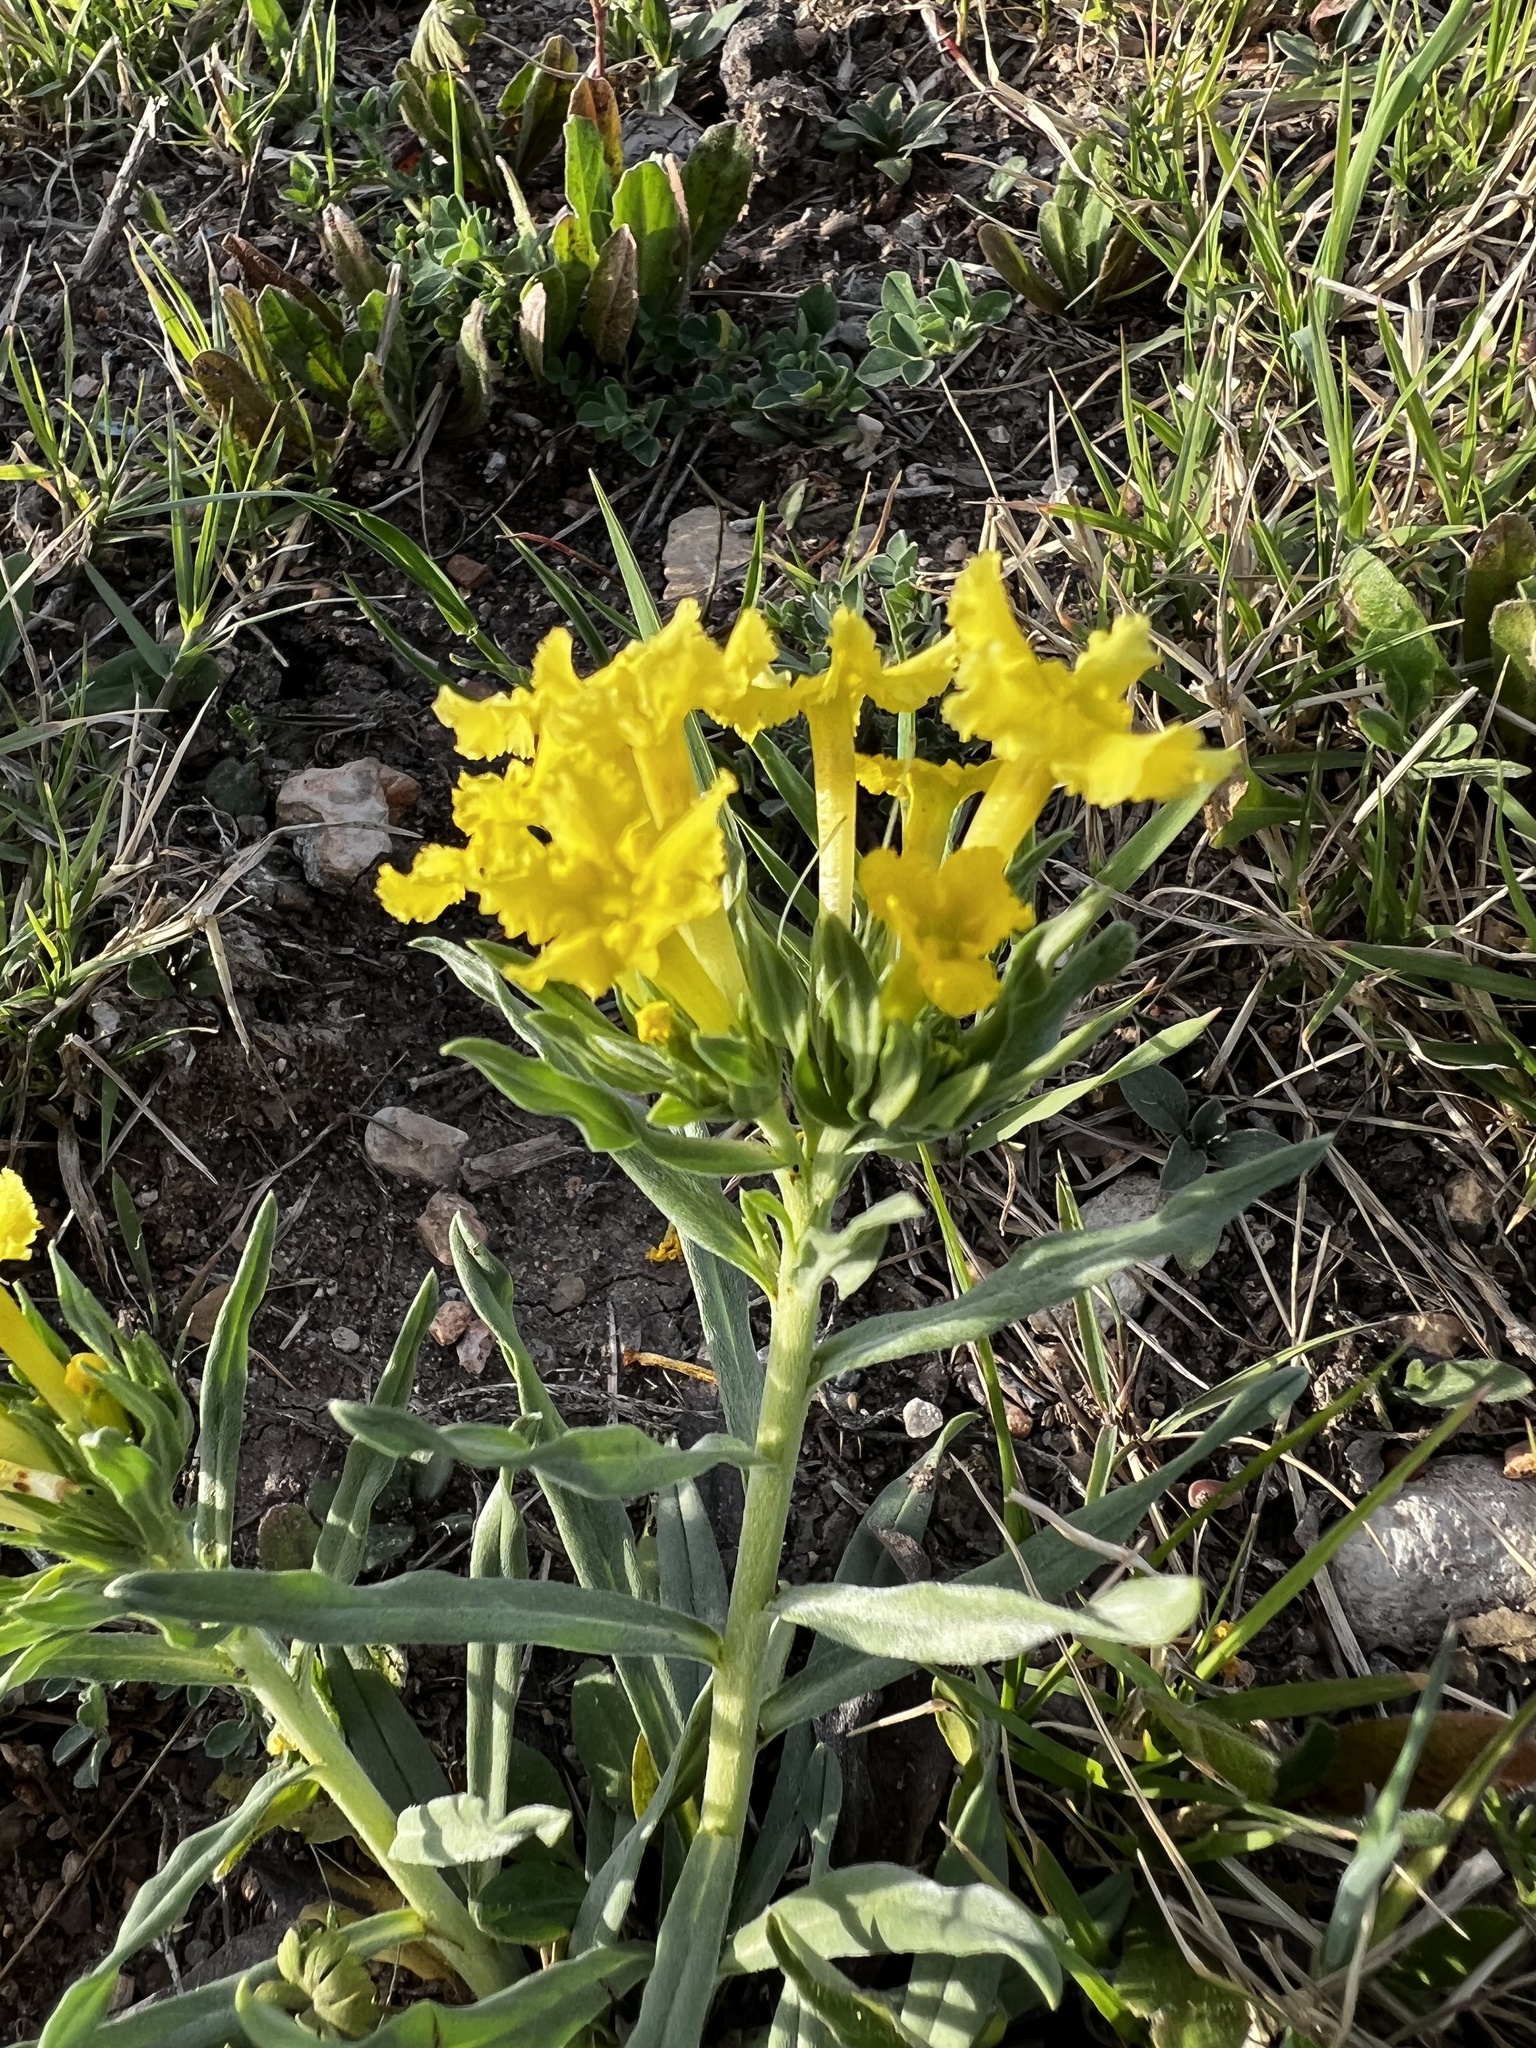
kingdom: Plantae
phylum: Tracheophyta
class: Magnoliopsida
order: Boraginales
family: Boraginaceae
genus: Lithospermum
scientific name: Lithospermum incisum
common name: Fringed gromwell
